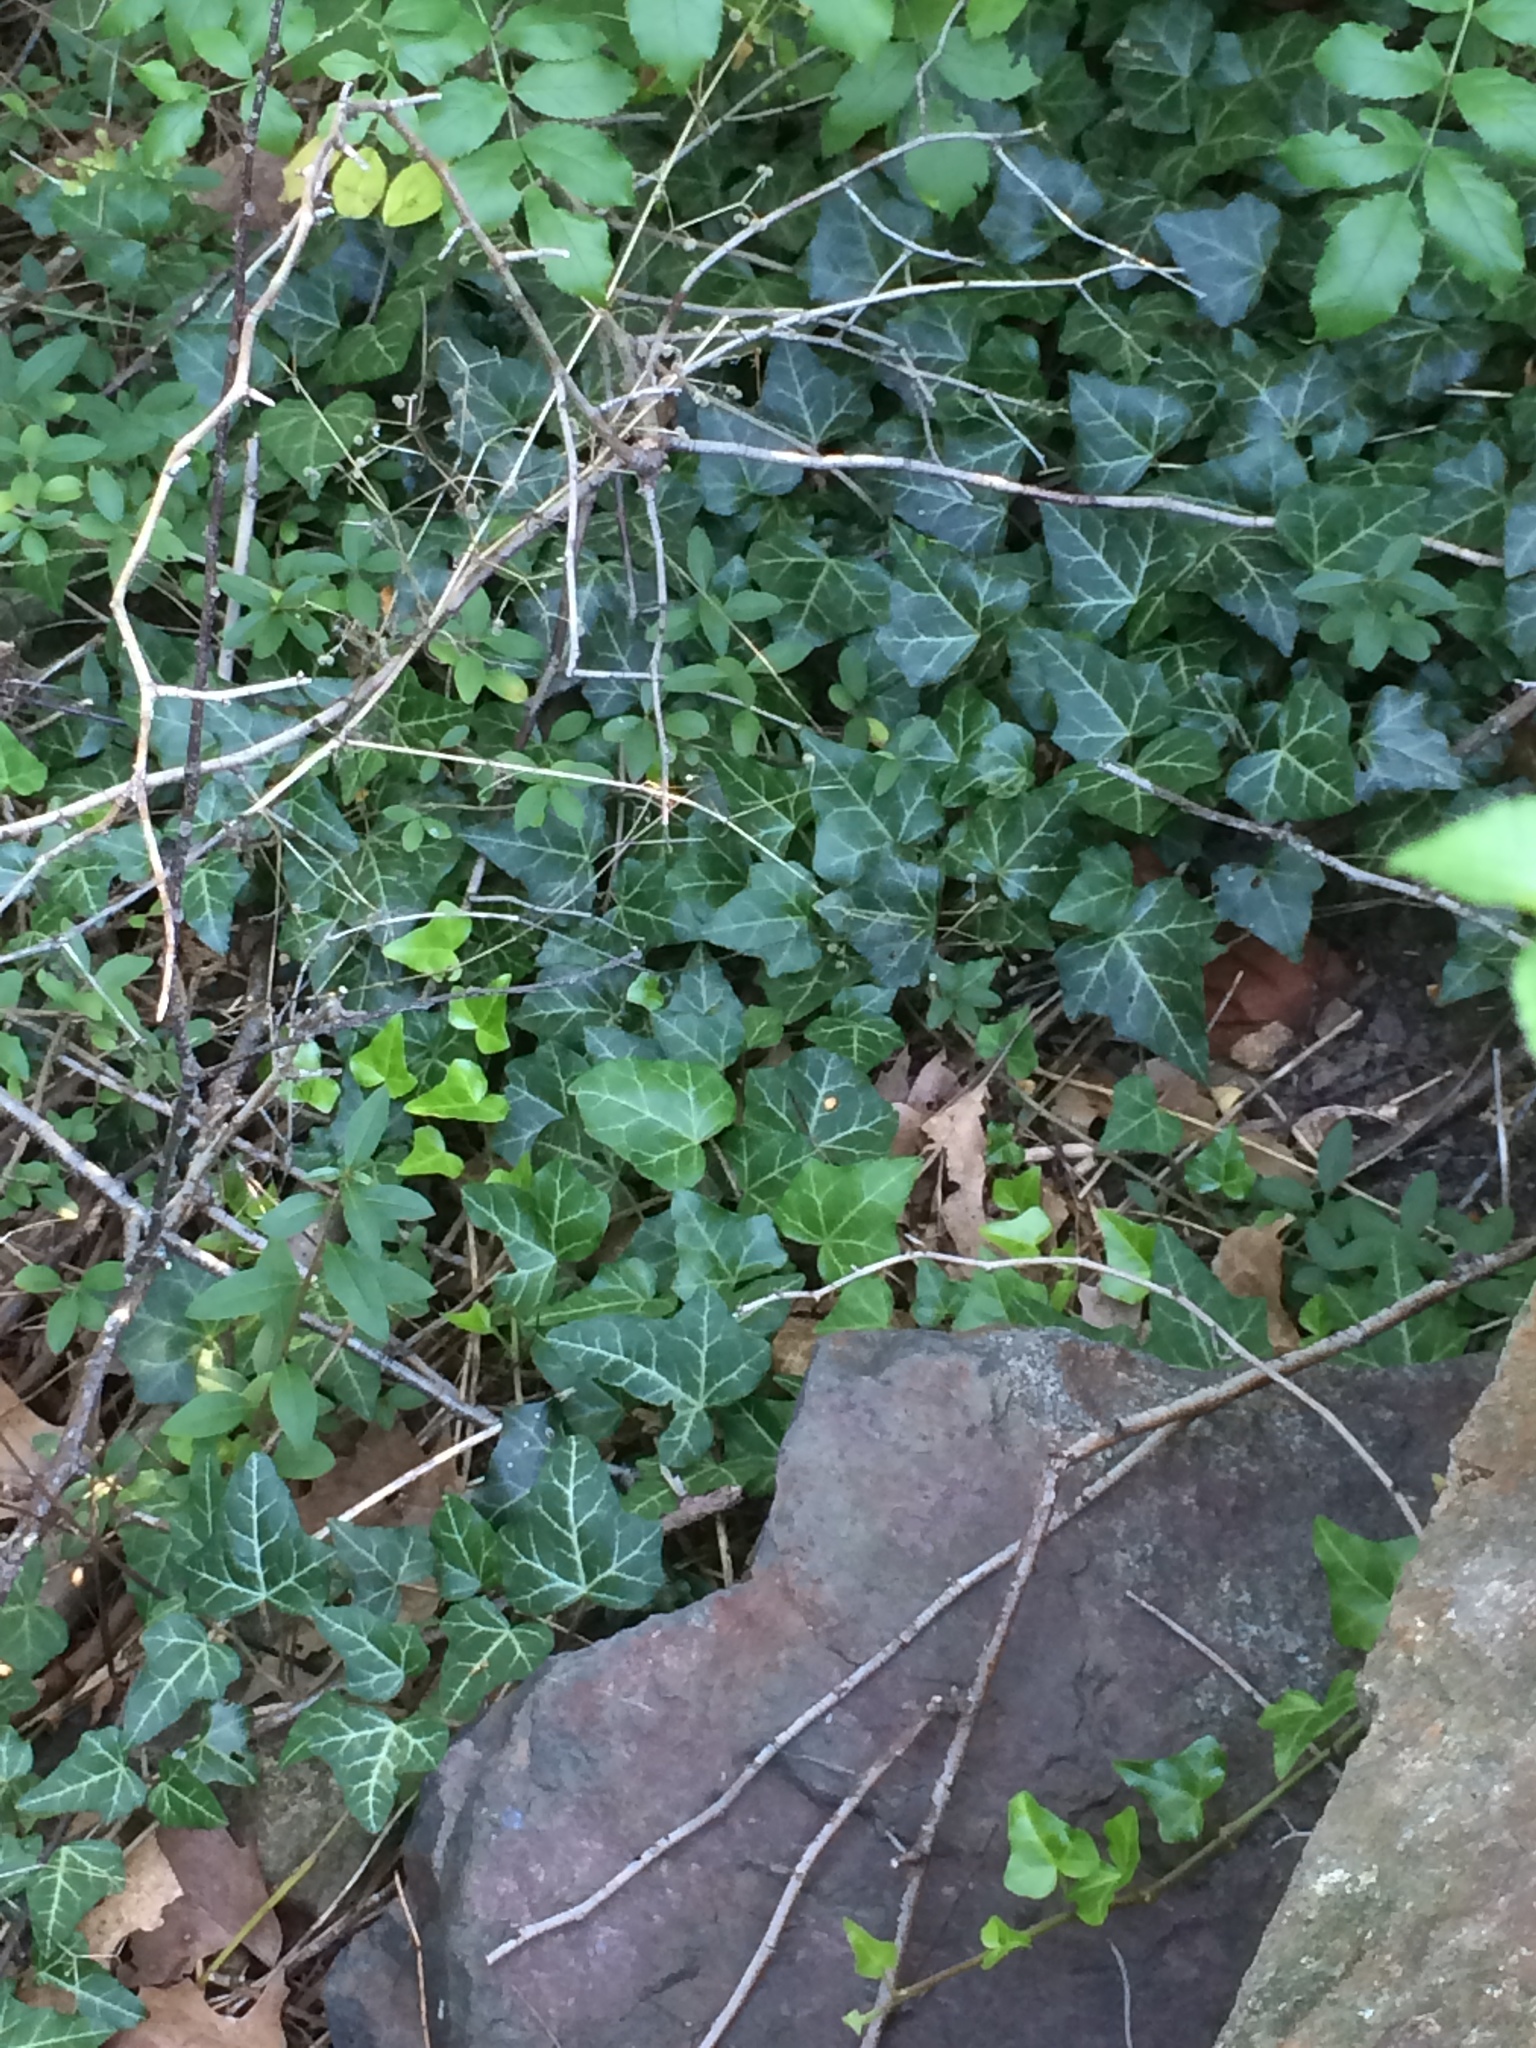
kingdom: Plantae
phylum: Tracheophyta
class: Magnoliopsida
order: Apiales
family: Araliaceae
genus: Hedera
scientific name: Hedera helix
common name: Ivy
